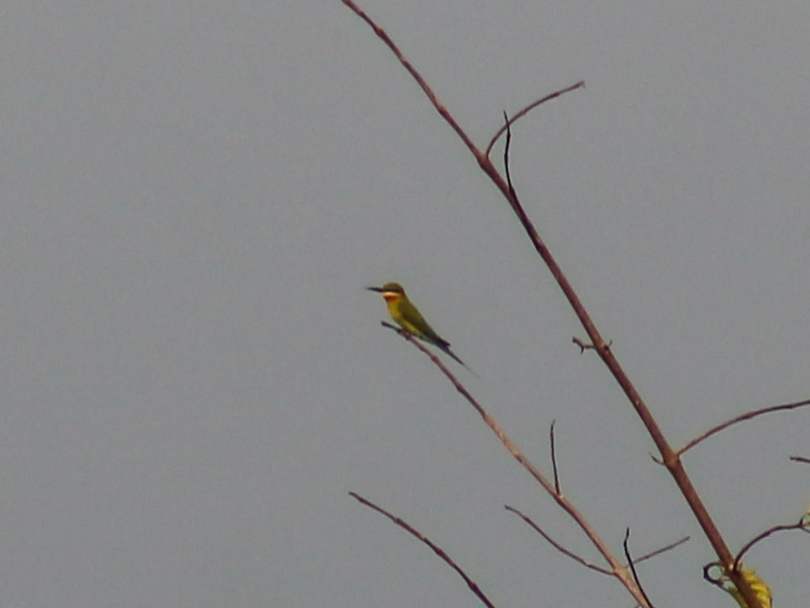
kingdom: Animalia
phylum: Chordata
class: Aves
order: Coraciiformes
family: Meropidae
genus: Merops
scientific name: Merops philippinus
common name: Blue-tailed bee-eater
